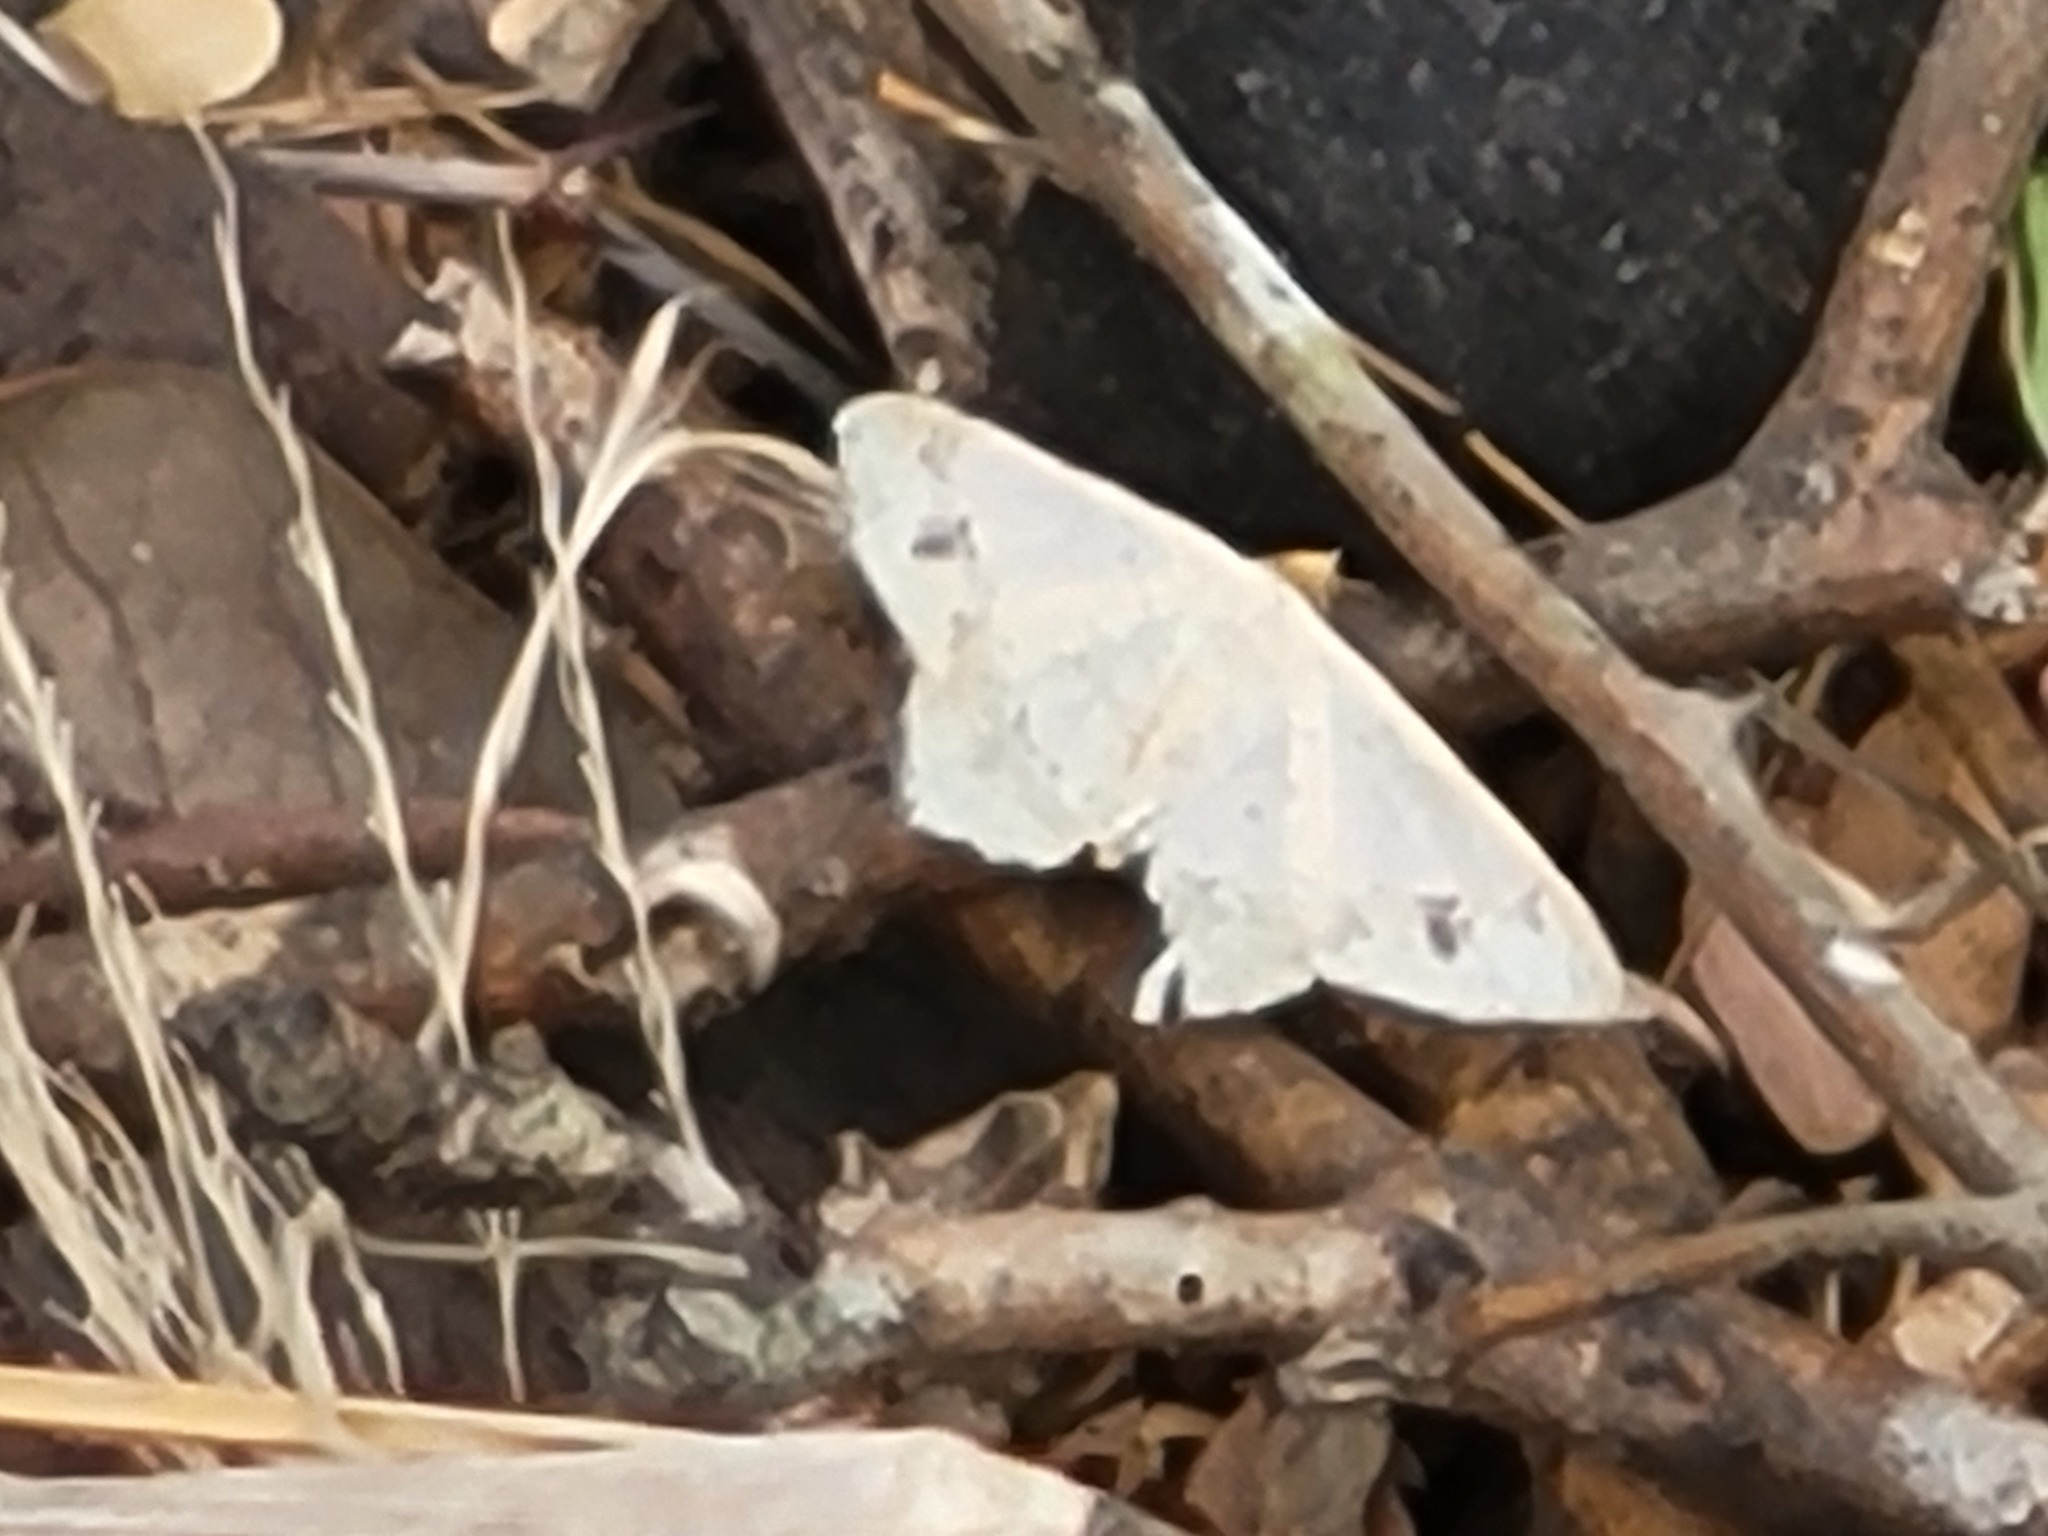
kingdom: Animalia
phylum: Arthropoda
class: Insecta
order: Lepidoptera
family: Geometridae
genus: Macaria
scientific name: Macaria aemulataria
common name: Common angle
